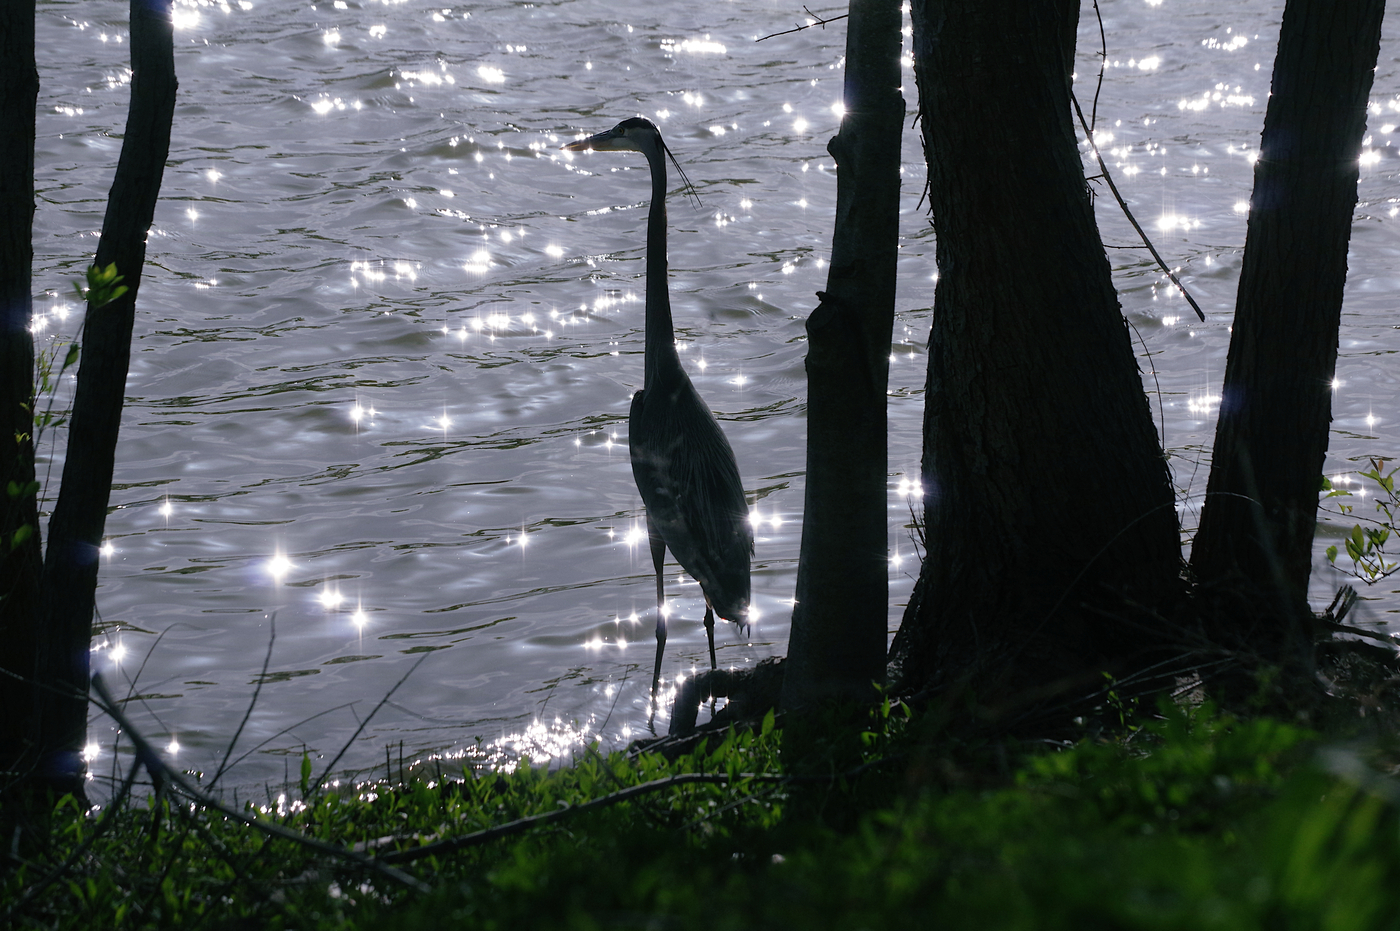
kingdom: Animalia
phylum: Chordata
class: Aves
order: Pelecaniformes
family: Ardeidae
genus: Ardea
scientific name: Ardea herodias
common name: Great blue heron
